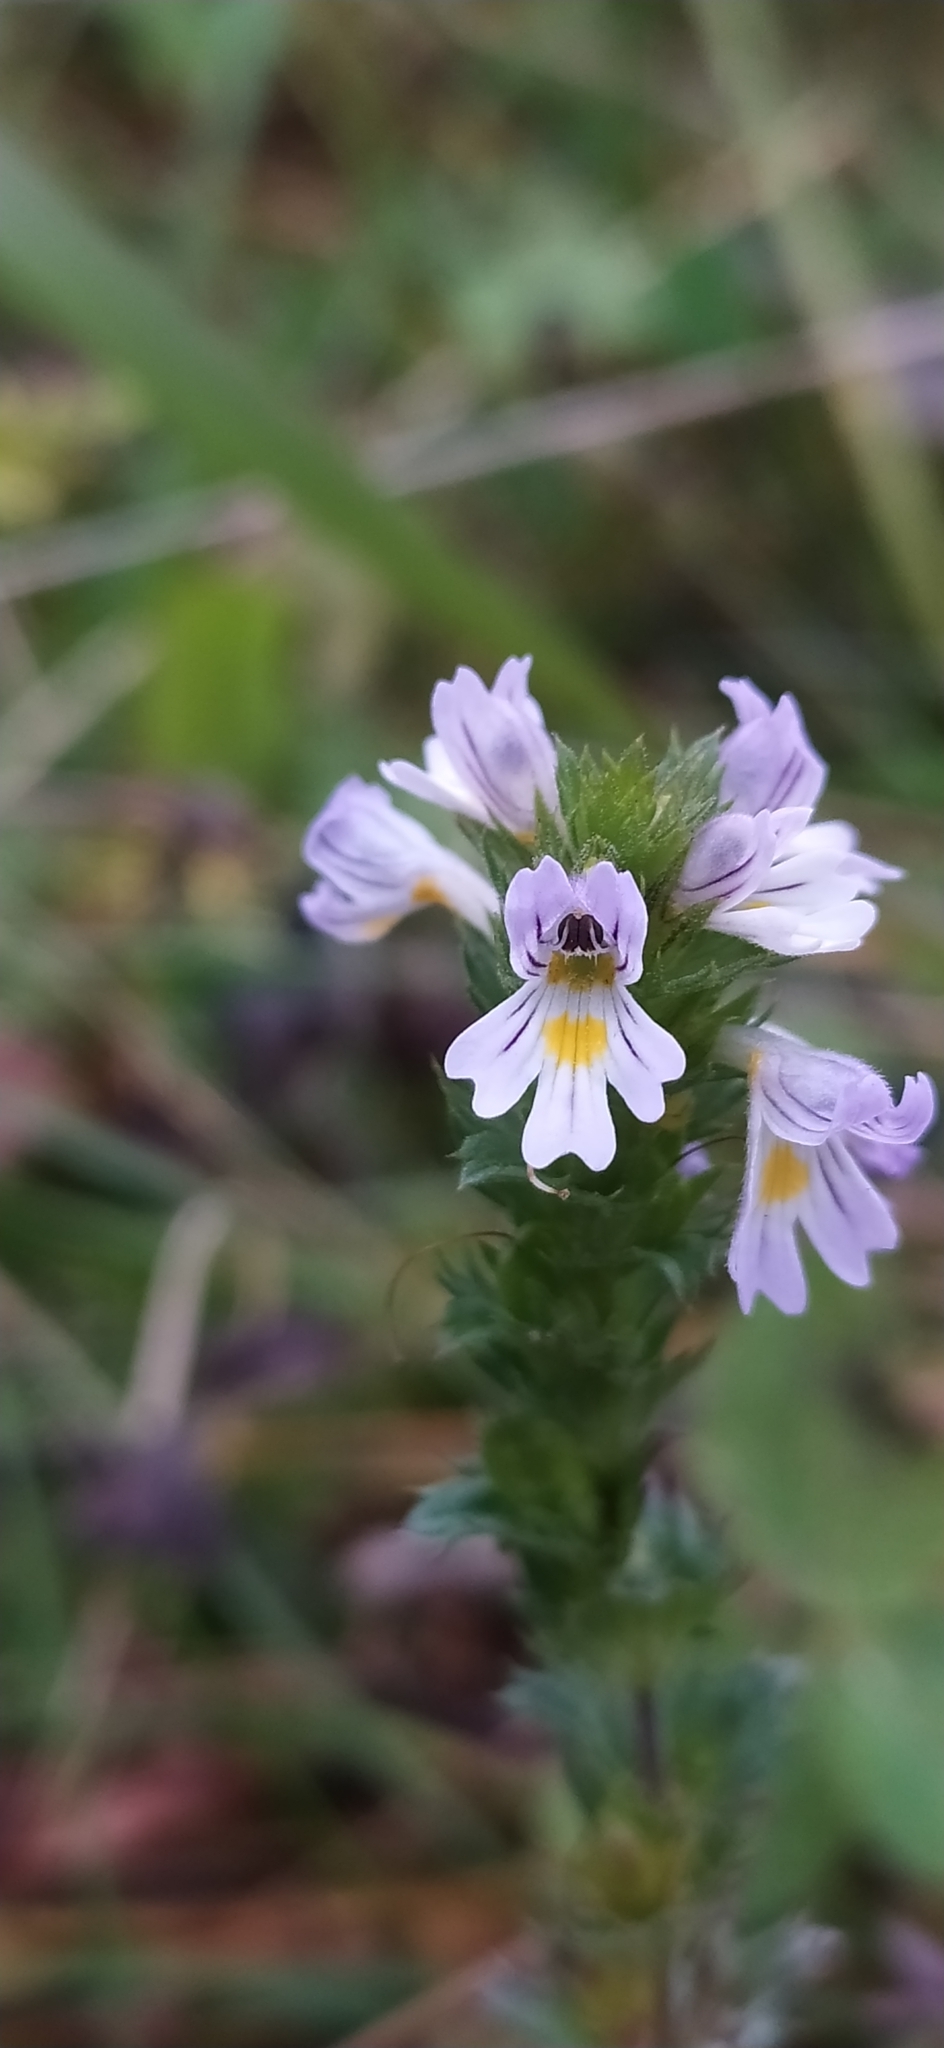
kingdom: Plantae
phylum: Tracheophyta
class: Magnoliopsida
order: Lamiales
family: Orobanchaceae
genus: Euphrasia
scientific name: Euphrasia stricta
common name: Drug eyebright
